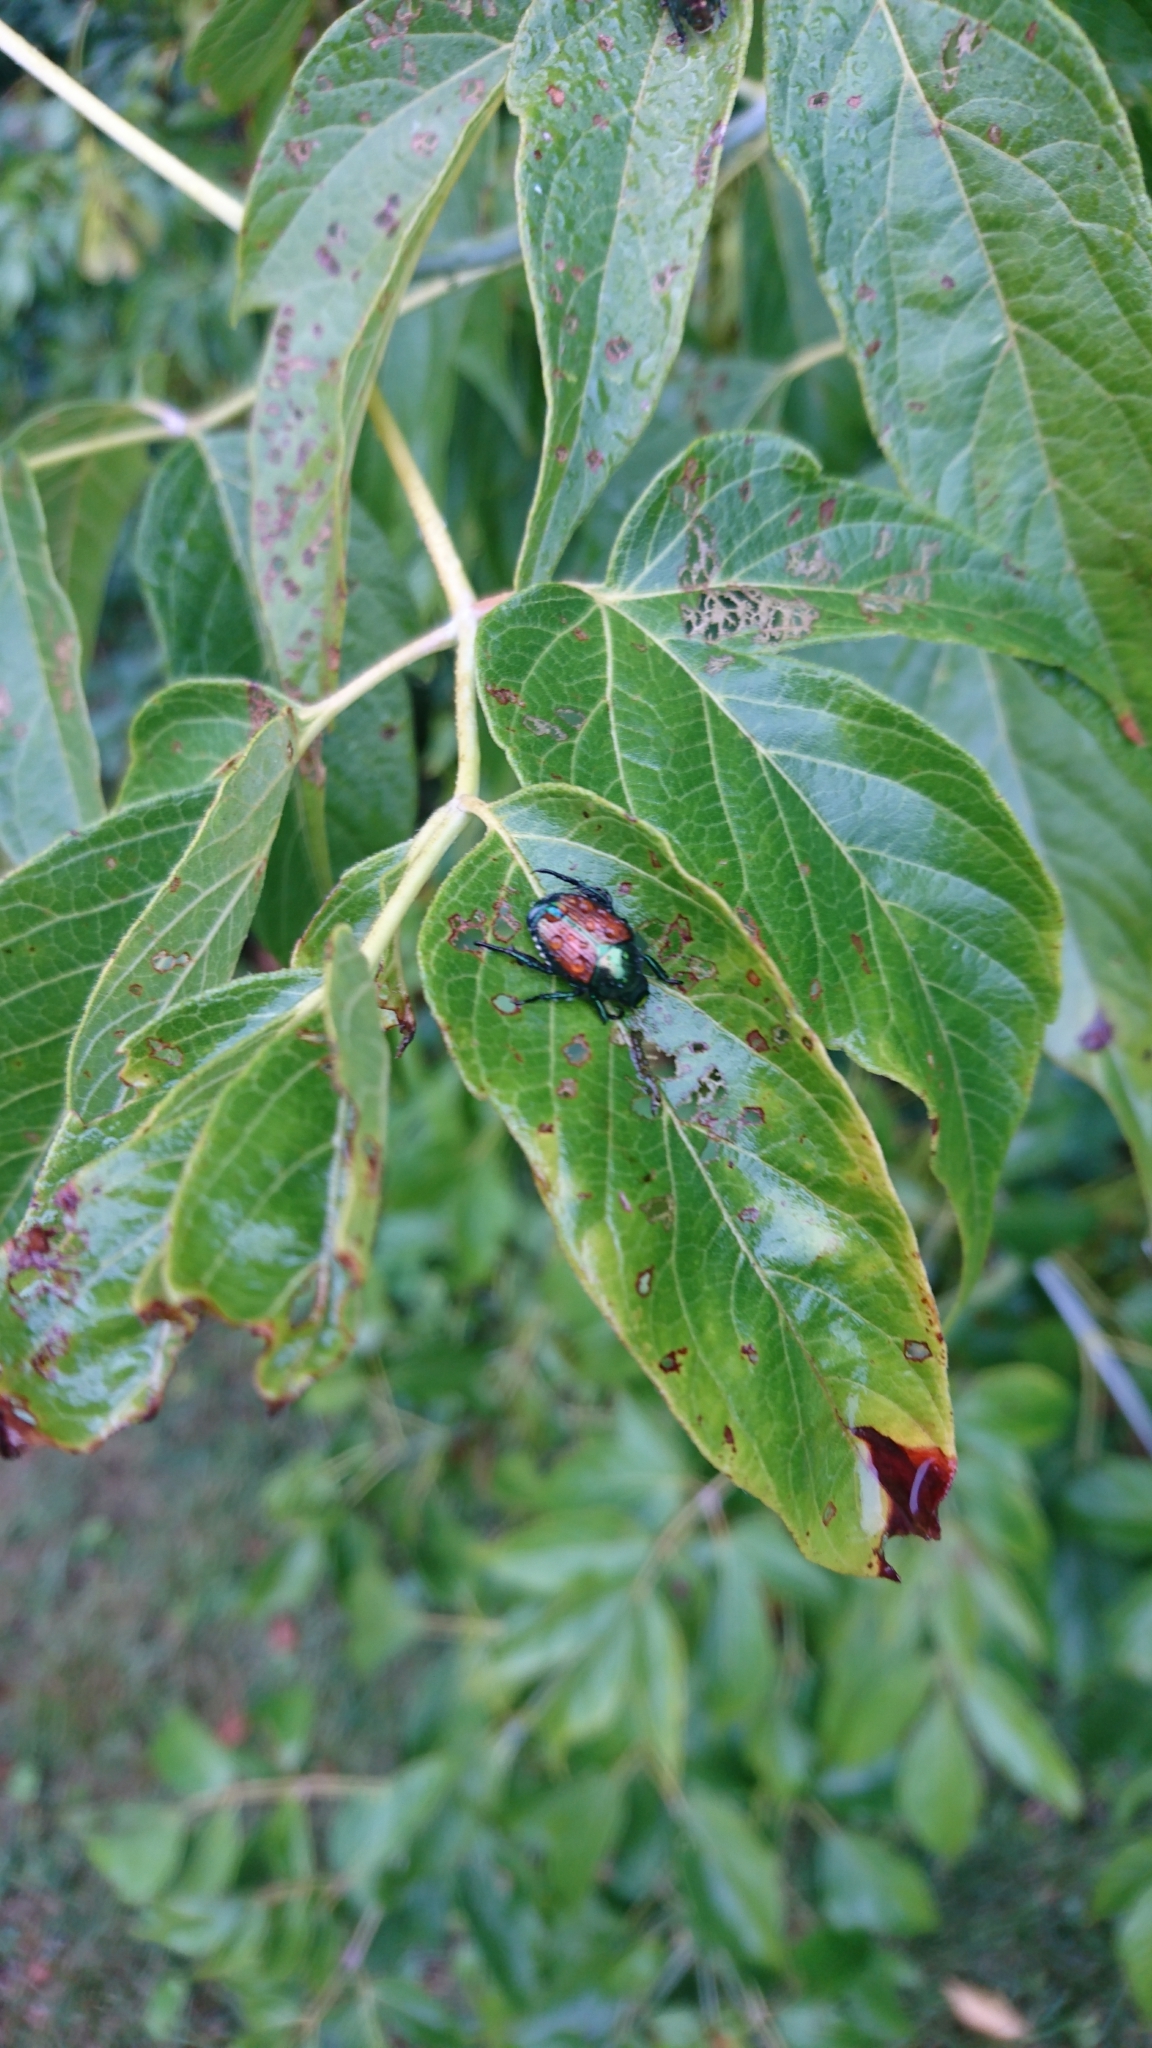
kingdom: Animalia
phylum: Arthropoda
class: Insecta
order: Coleoptera
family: Scarabaeidae
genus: Popillia
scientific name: Popillia japonica
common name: Japanese beetle
